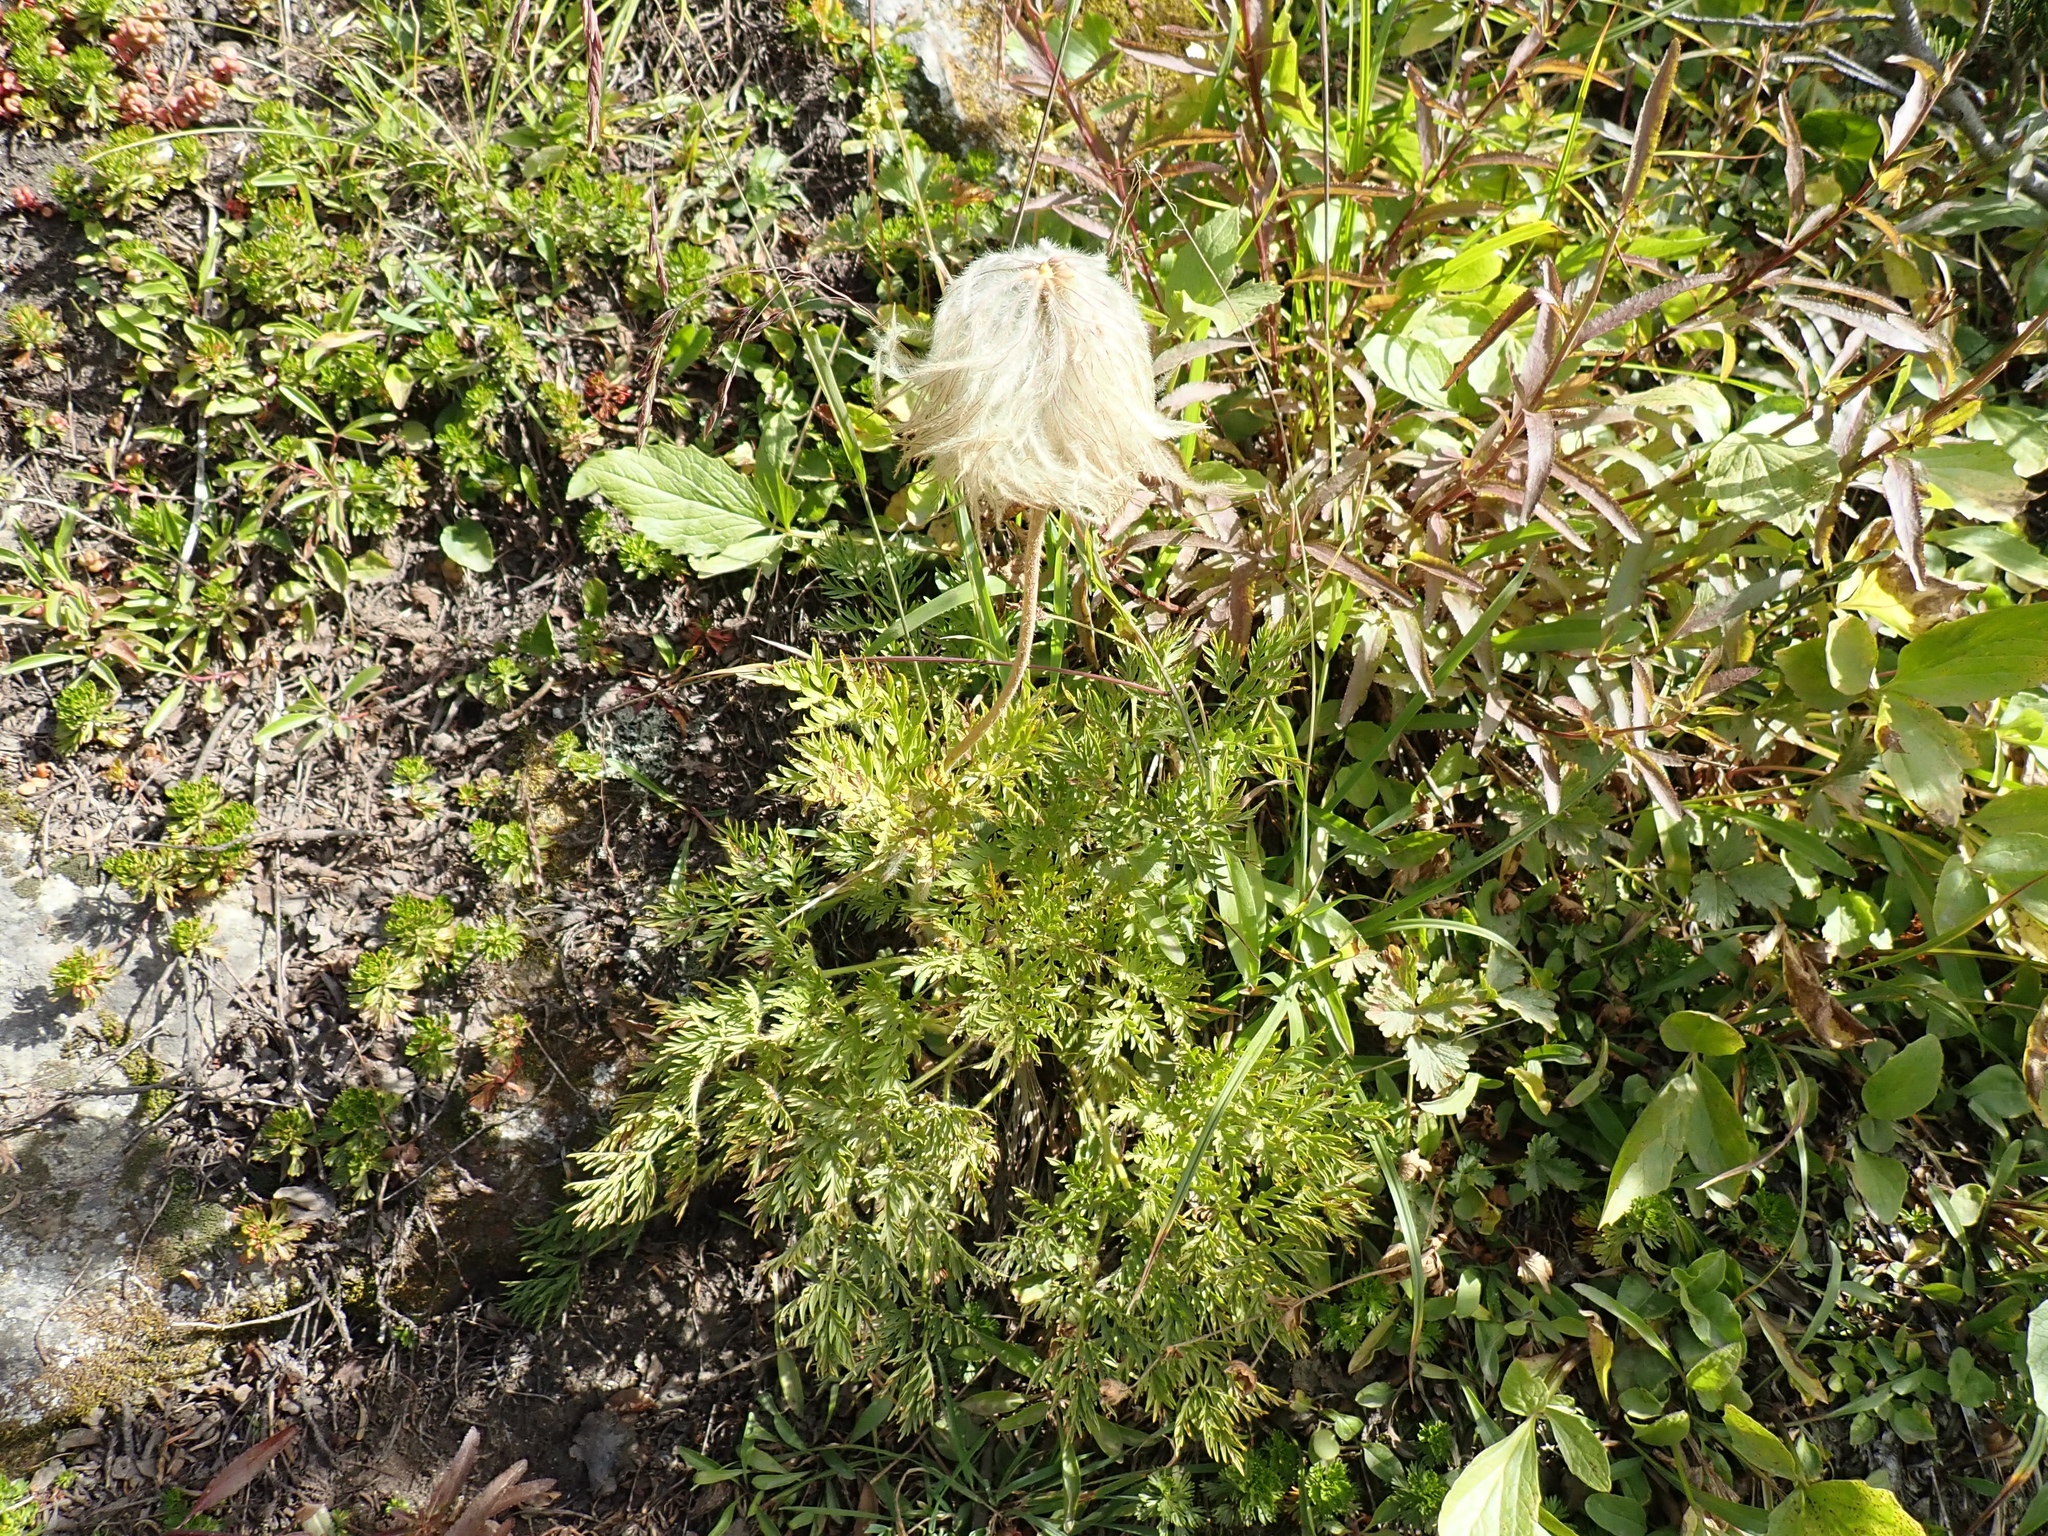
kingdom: Plantae
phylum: Tracheophyta
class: Magnoliopsida
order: Ranunculales
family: Ranunculaceae
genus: Pulsatilla
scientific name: Pulsatilla occidentalis
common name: Mountain pasqueflower
